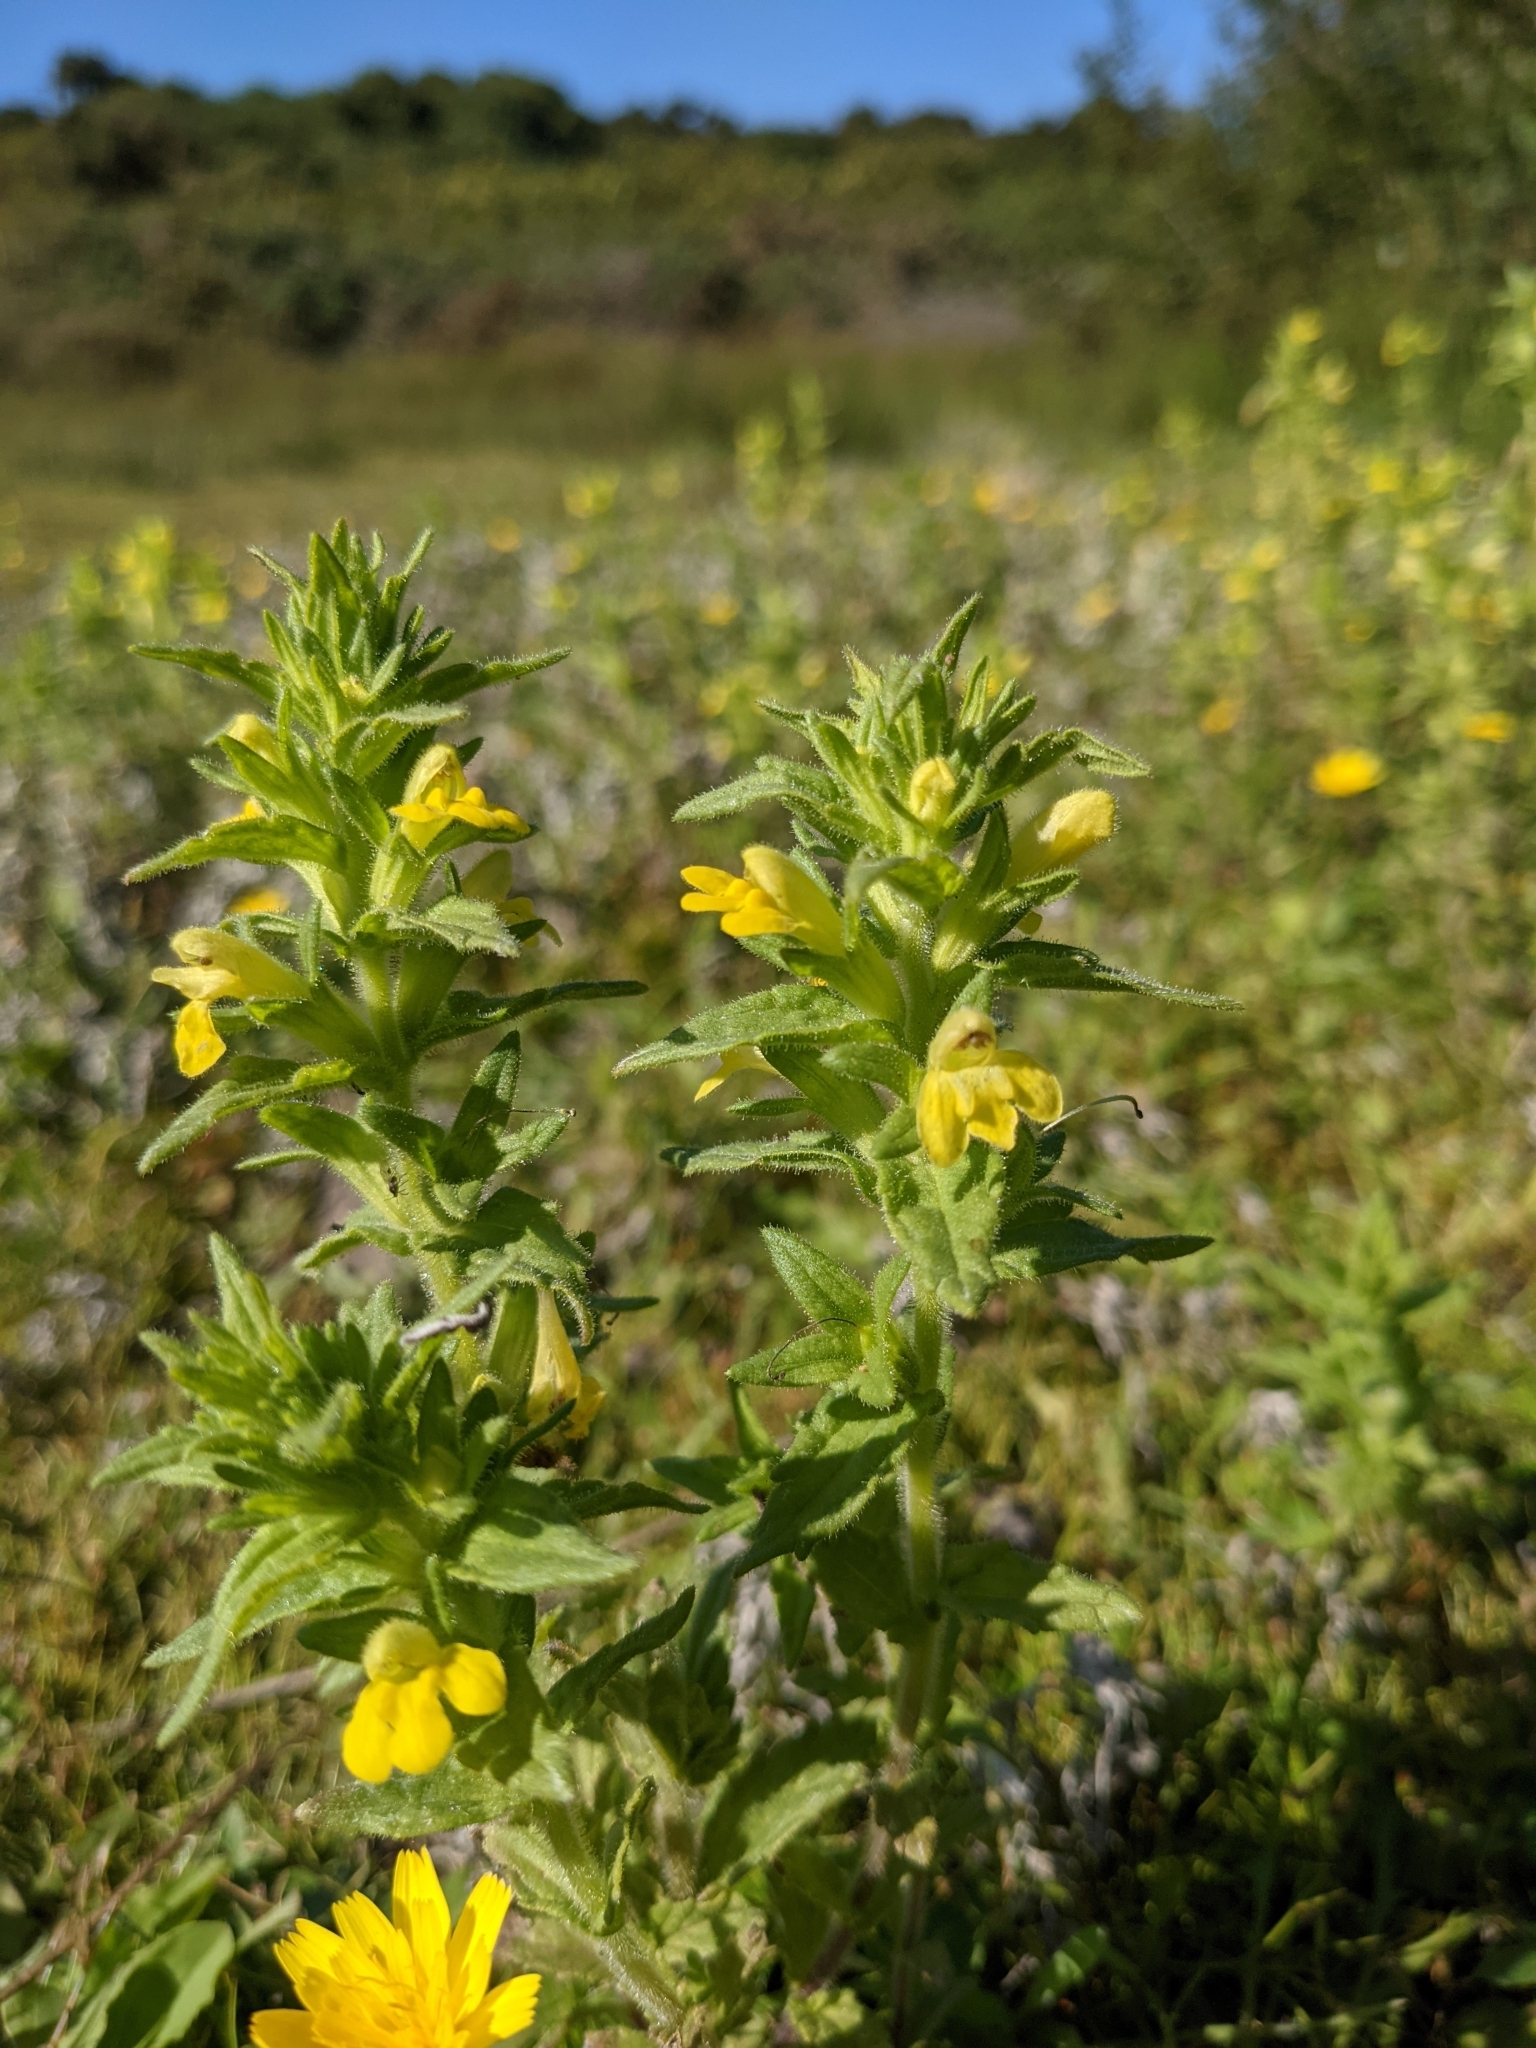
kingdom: Plantae
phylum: Tracheophyta
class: Magnoliopsida
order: Lamiales
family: Orobanchaceae
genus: Bellardia
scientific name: Bellardia viscosa
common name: Sticky parentucellia
